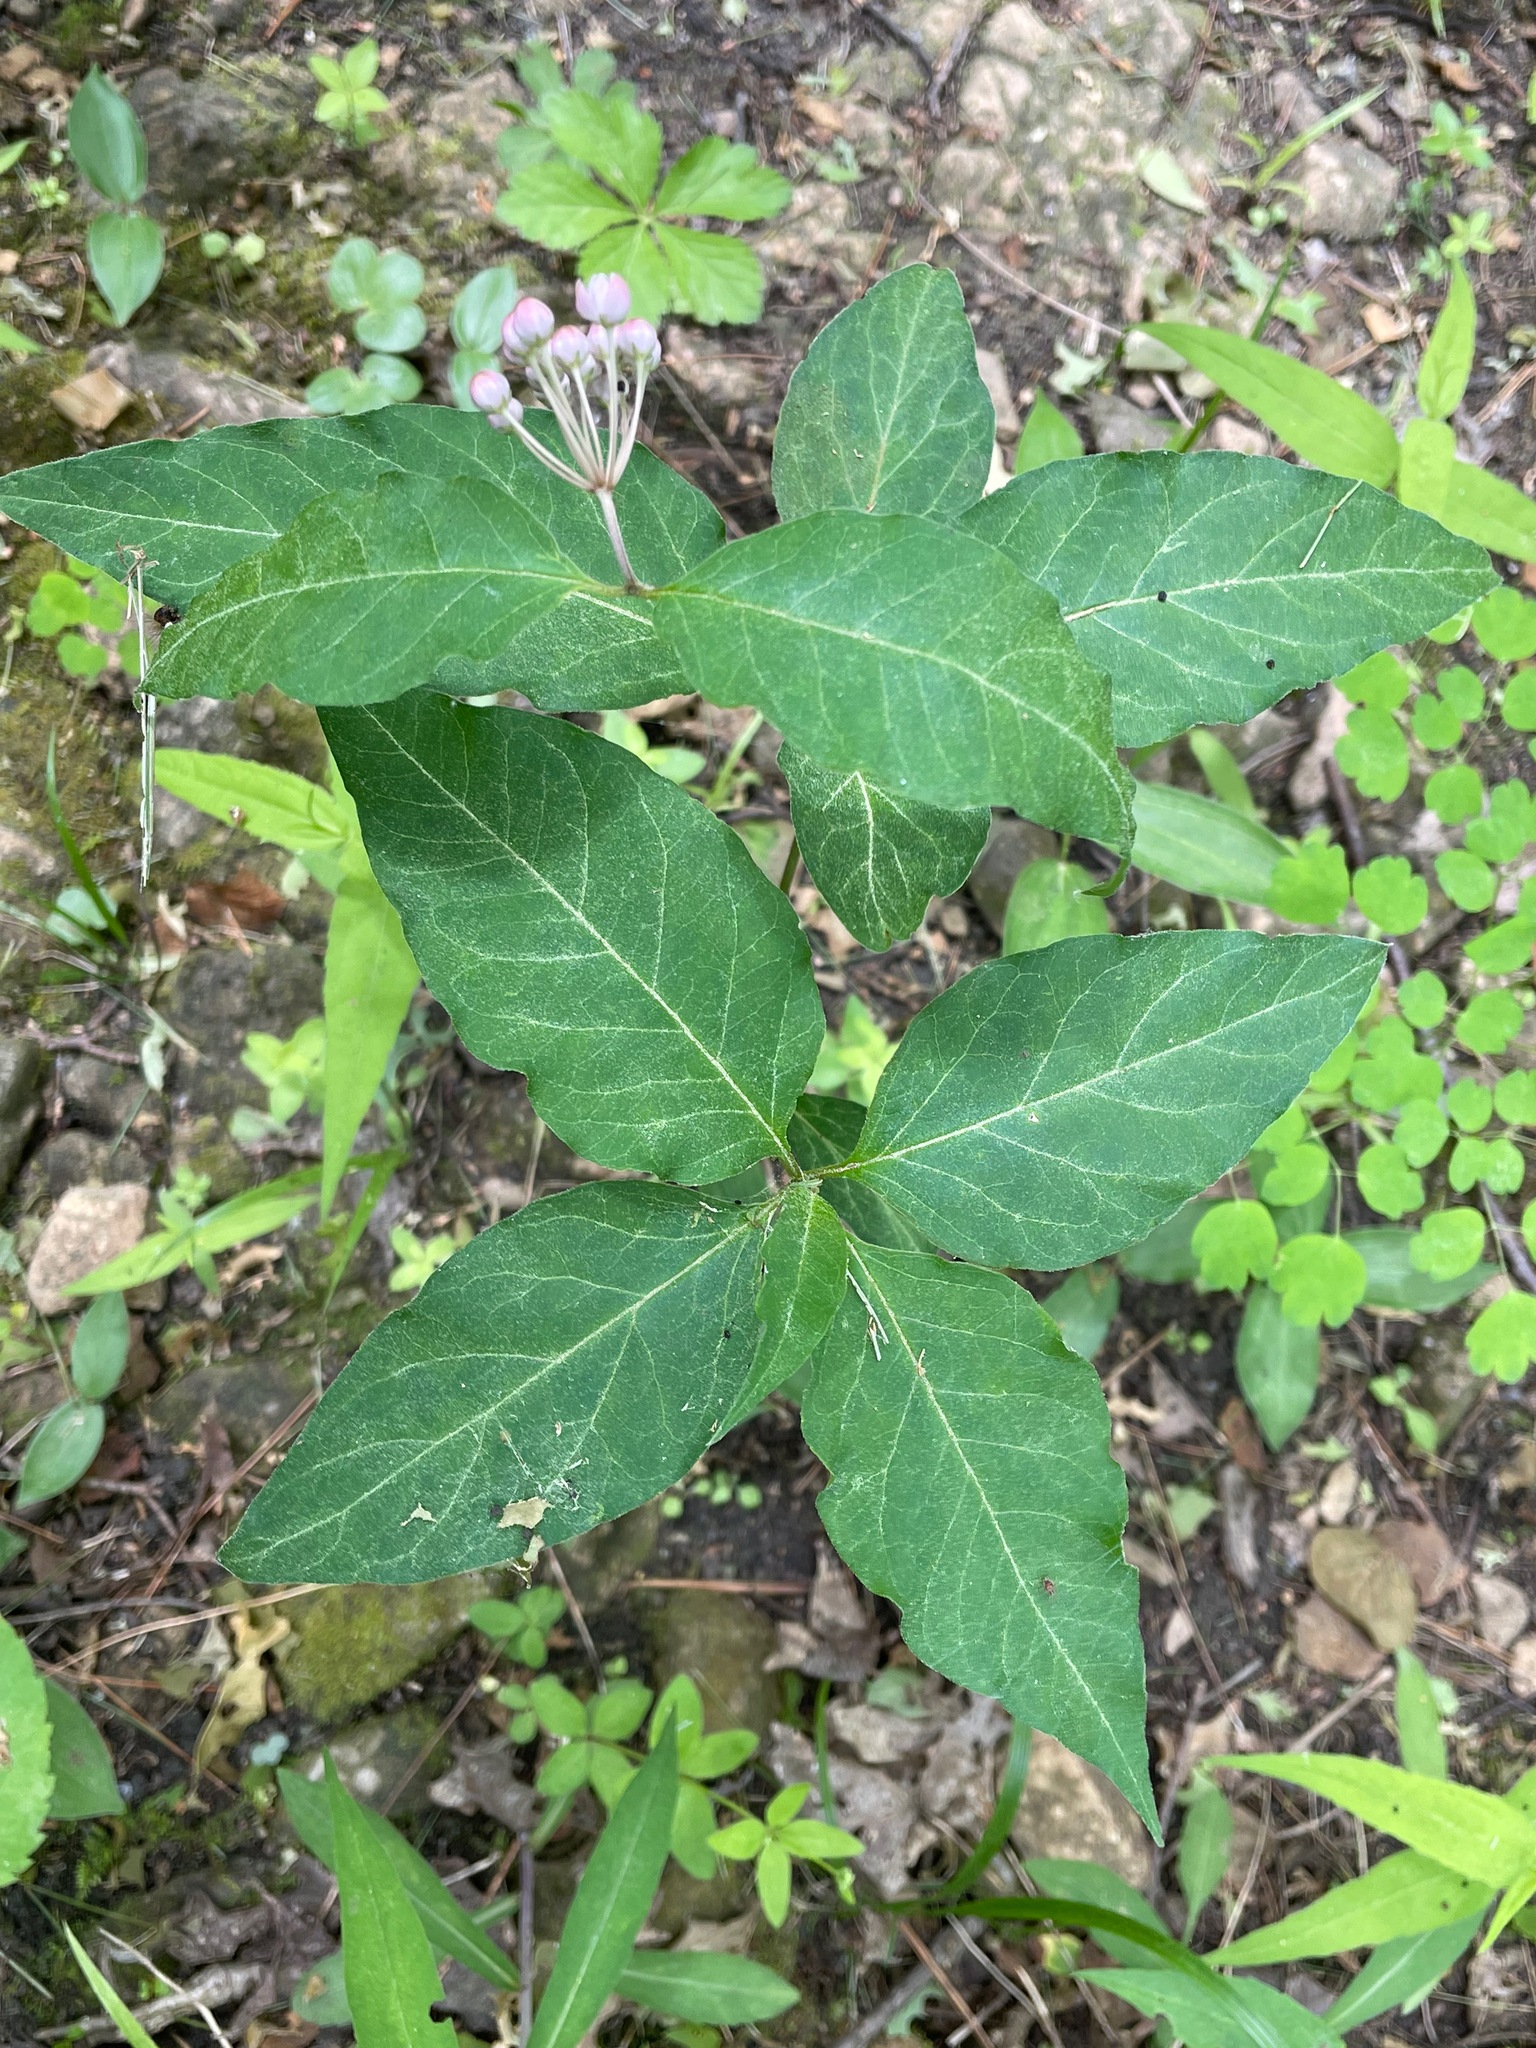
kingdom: Plantae
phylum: Tracheophyta
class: Magnoliopsida
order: Gentianales
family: Apocynaceae
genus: Asclepias
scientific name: Asclepias quadrifolia
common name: Whorled milkweed
